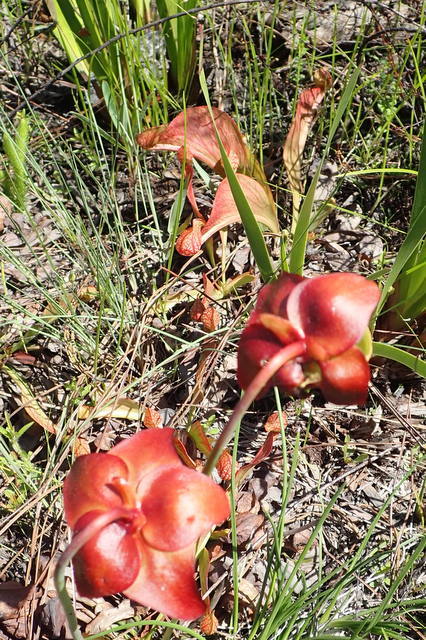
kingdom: Plantae
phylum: Tracheophyta
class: Magnoliopsida
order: Ericales
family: Sarraceniaceae
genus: Sarracenia
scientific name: Sarracenia psittacina
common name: Parrot pitcherplant
